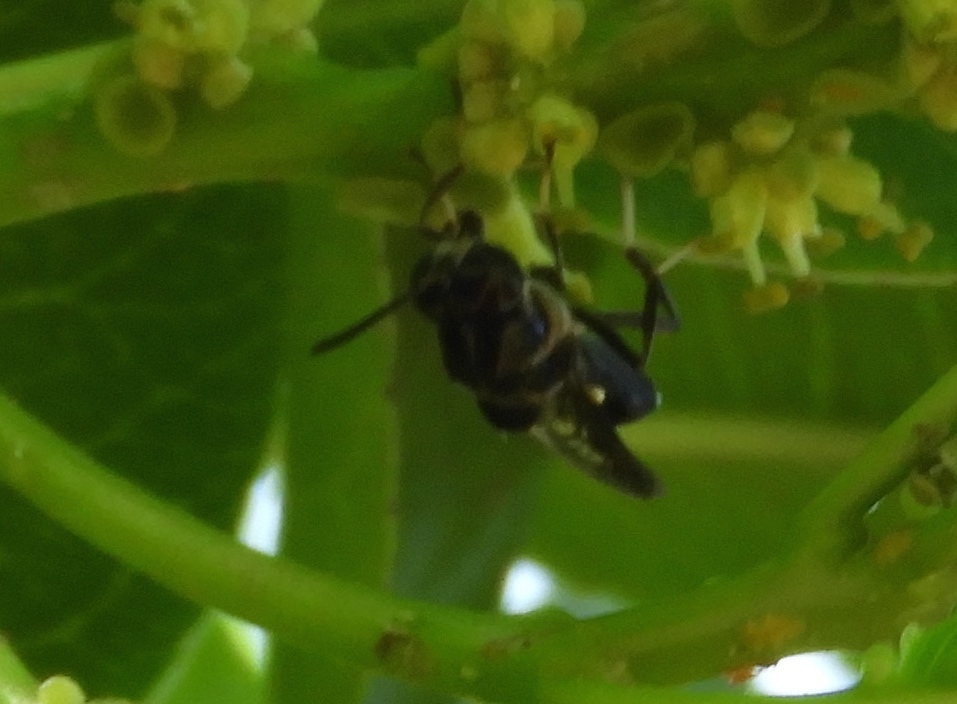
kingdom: Animalia
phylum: Arthropoda
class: Insecta
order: Diptera
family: Stratiomyidae
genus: Cyphomyia
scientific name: Cyphomyia
